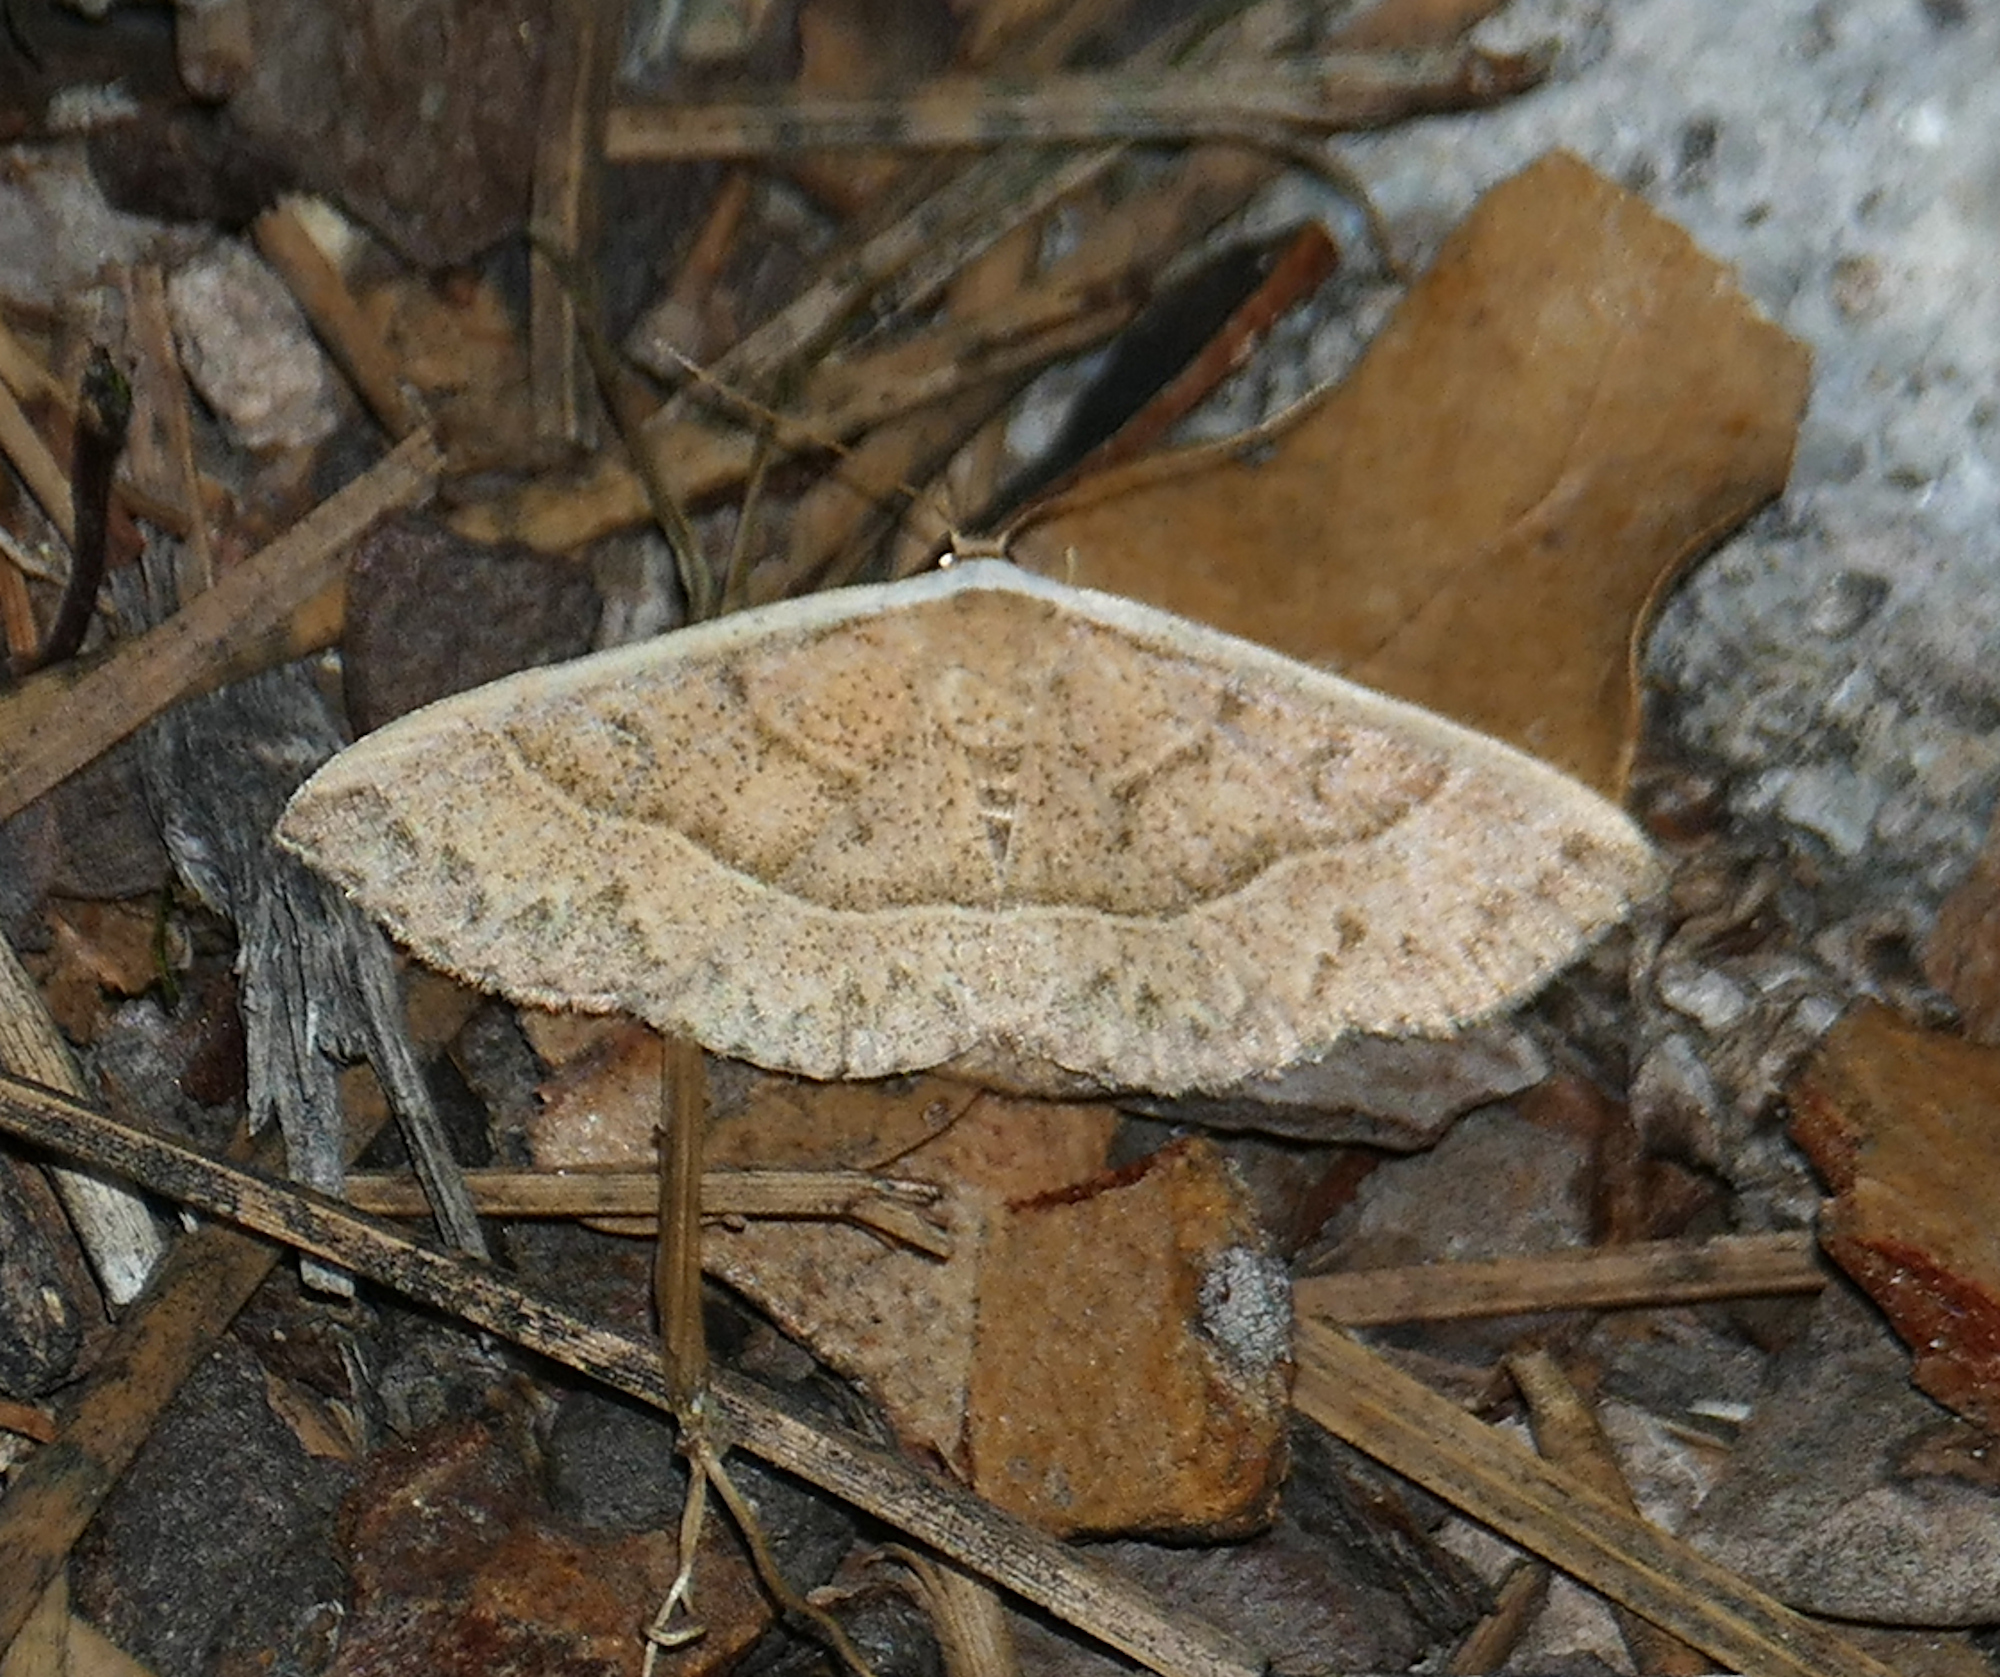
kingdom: Animalia
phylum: Arthropoda
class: Insecta
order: Lepidoptera
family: Noctuidae
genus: Oruza
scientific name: Oruza albocostata
